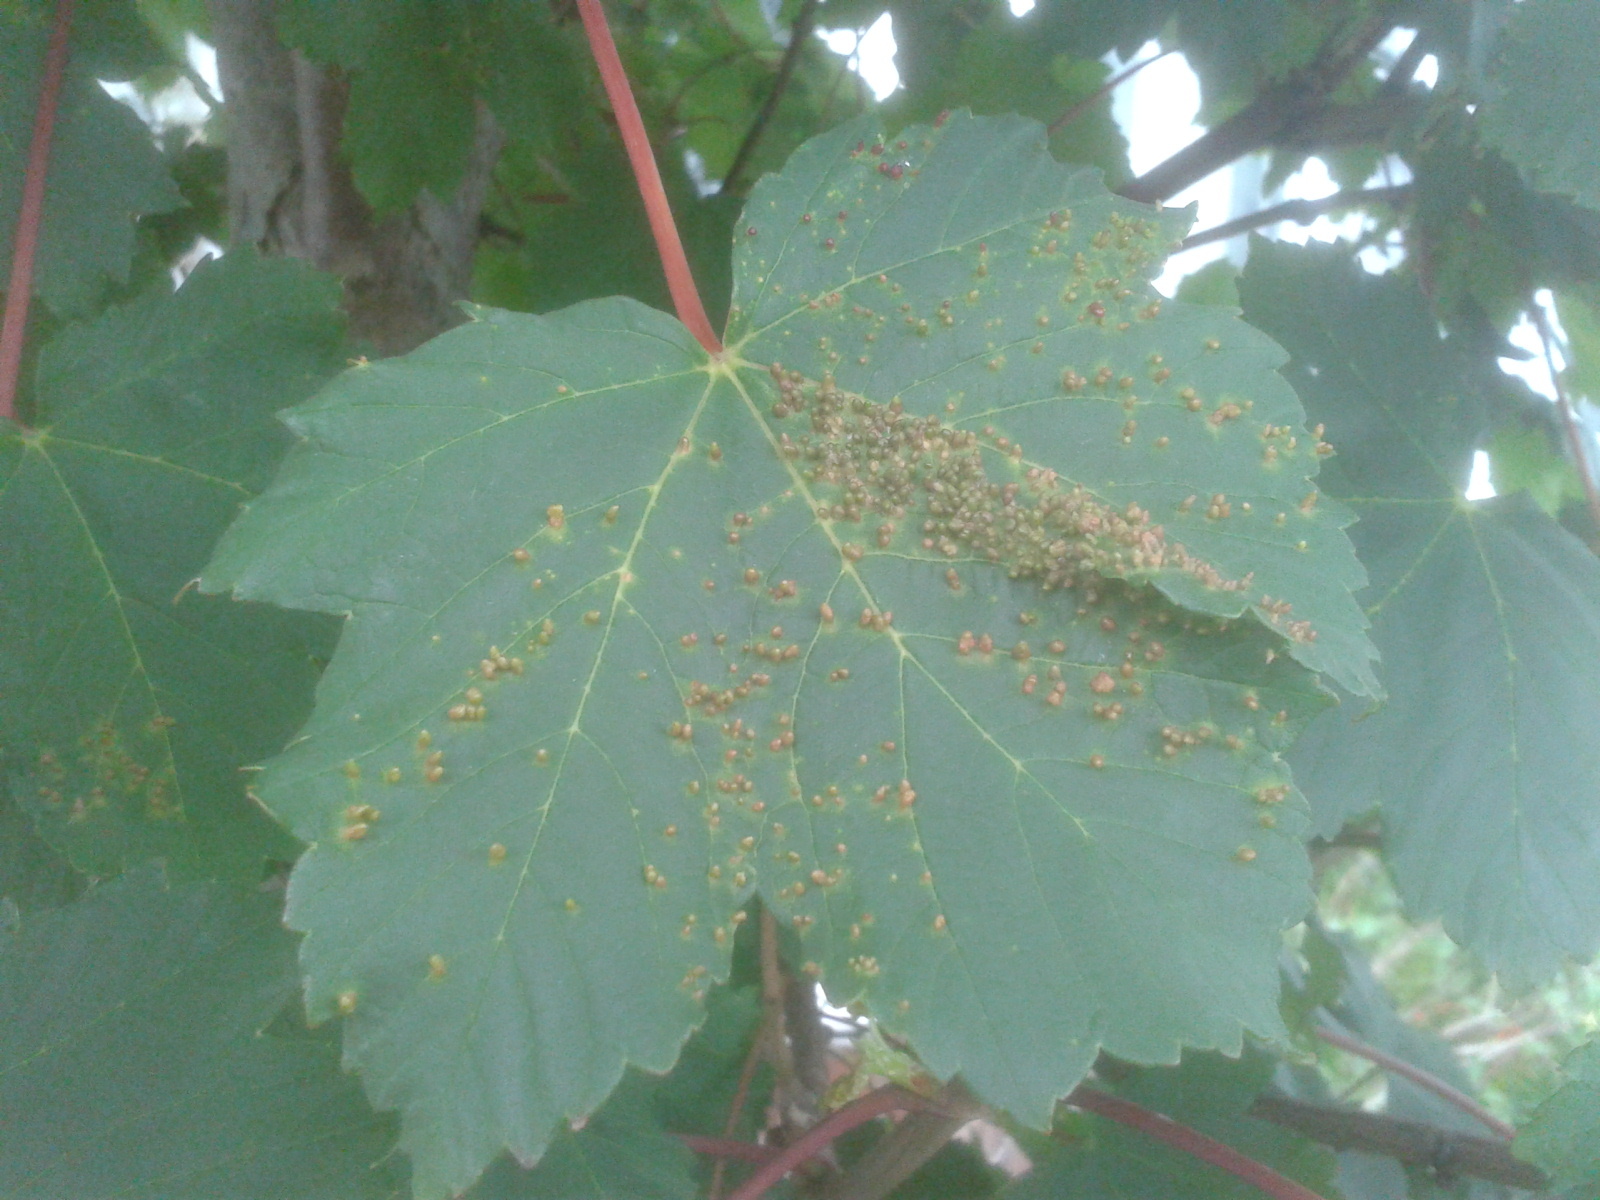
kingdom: Animalia
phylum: Arthropoda
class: Arachnida
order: Trombidiformes
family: Eriophyidae
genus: Aceria
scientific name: Aceria cephaloneus
